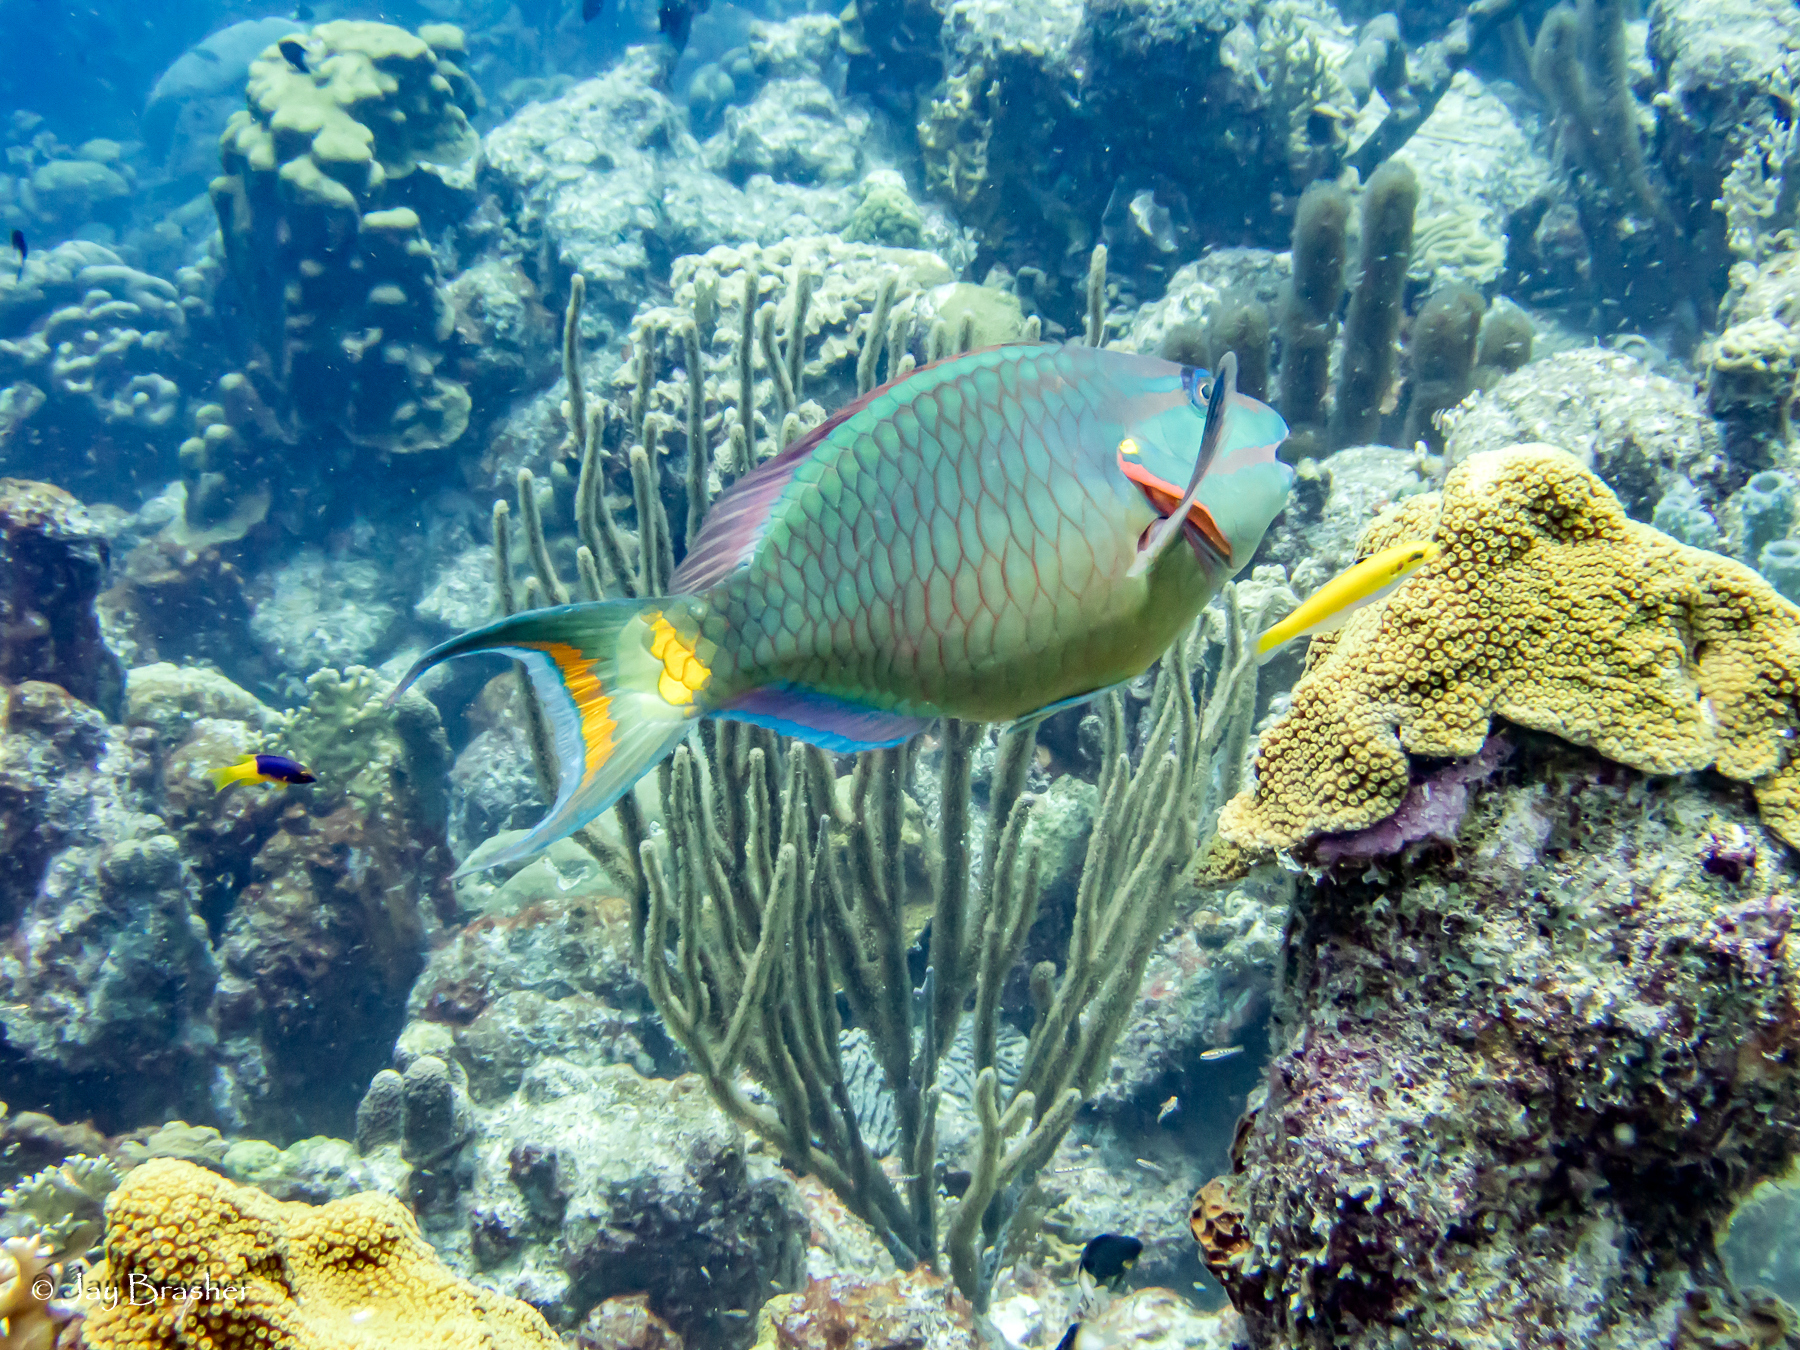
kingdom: Animalia
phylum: Chordata
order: Perciformes
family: Scaridae
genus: Sparisoma
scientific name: Sparisoma viride
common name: Stoplight parrotfish
